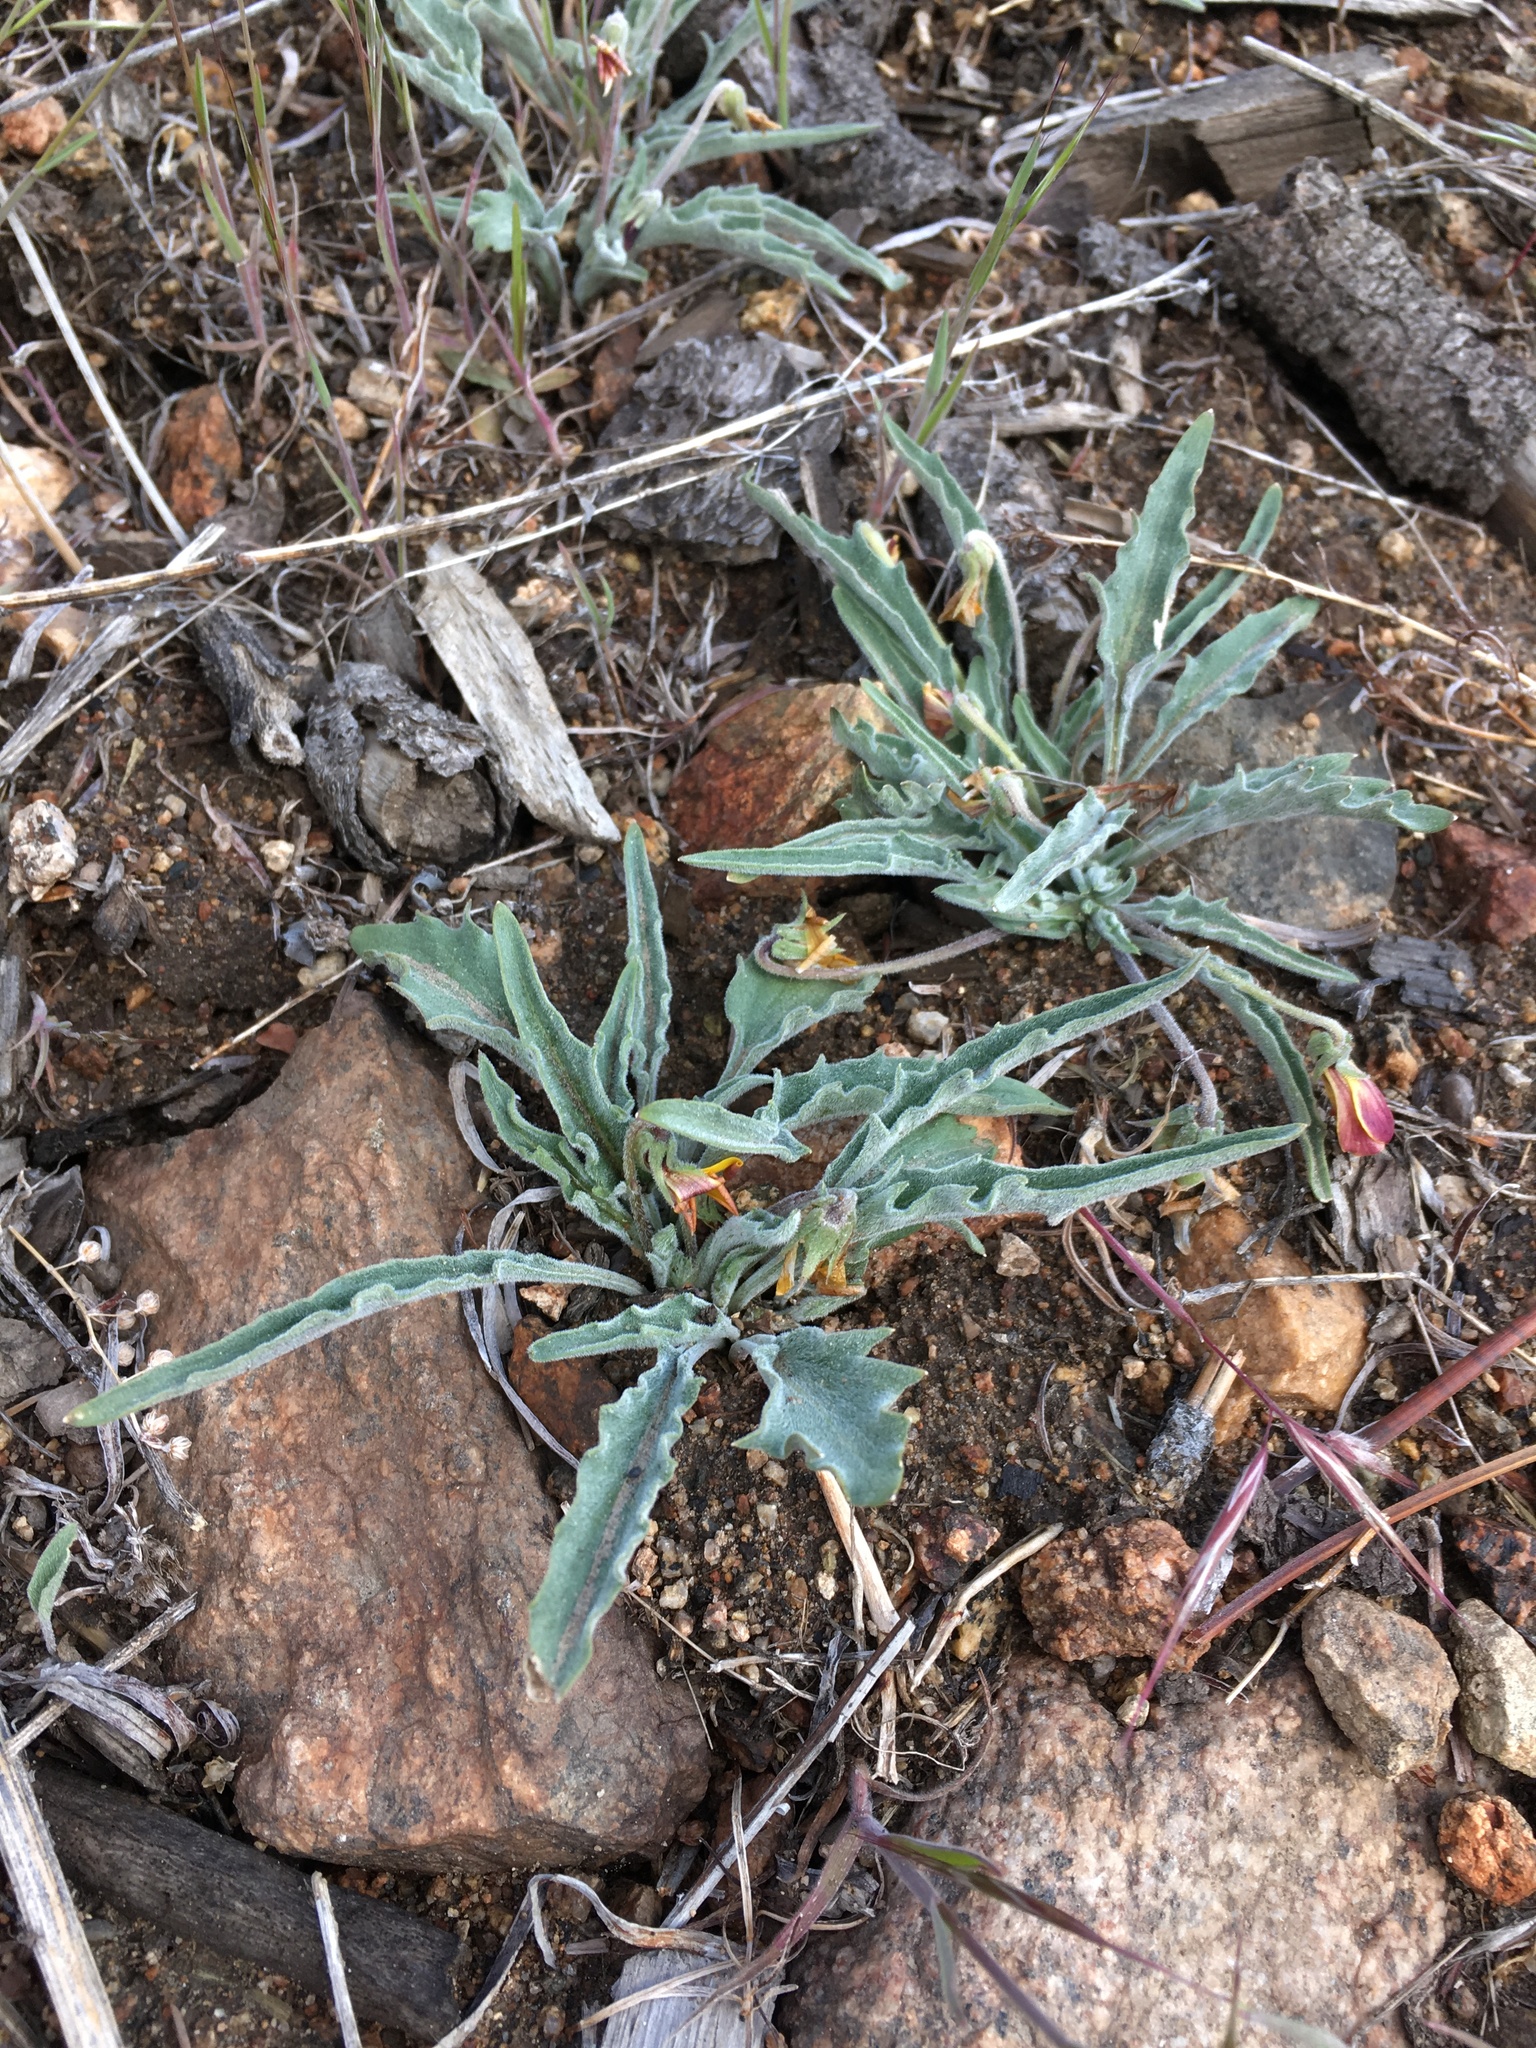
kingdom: Plantae
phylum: Tracheophyta
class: Magnoliopsida
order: Malpighiales
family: Violaceae
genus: Viola
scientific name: Viola pinetorum
